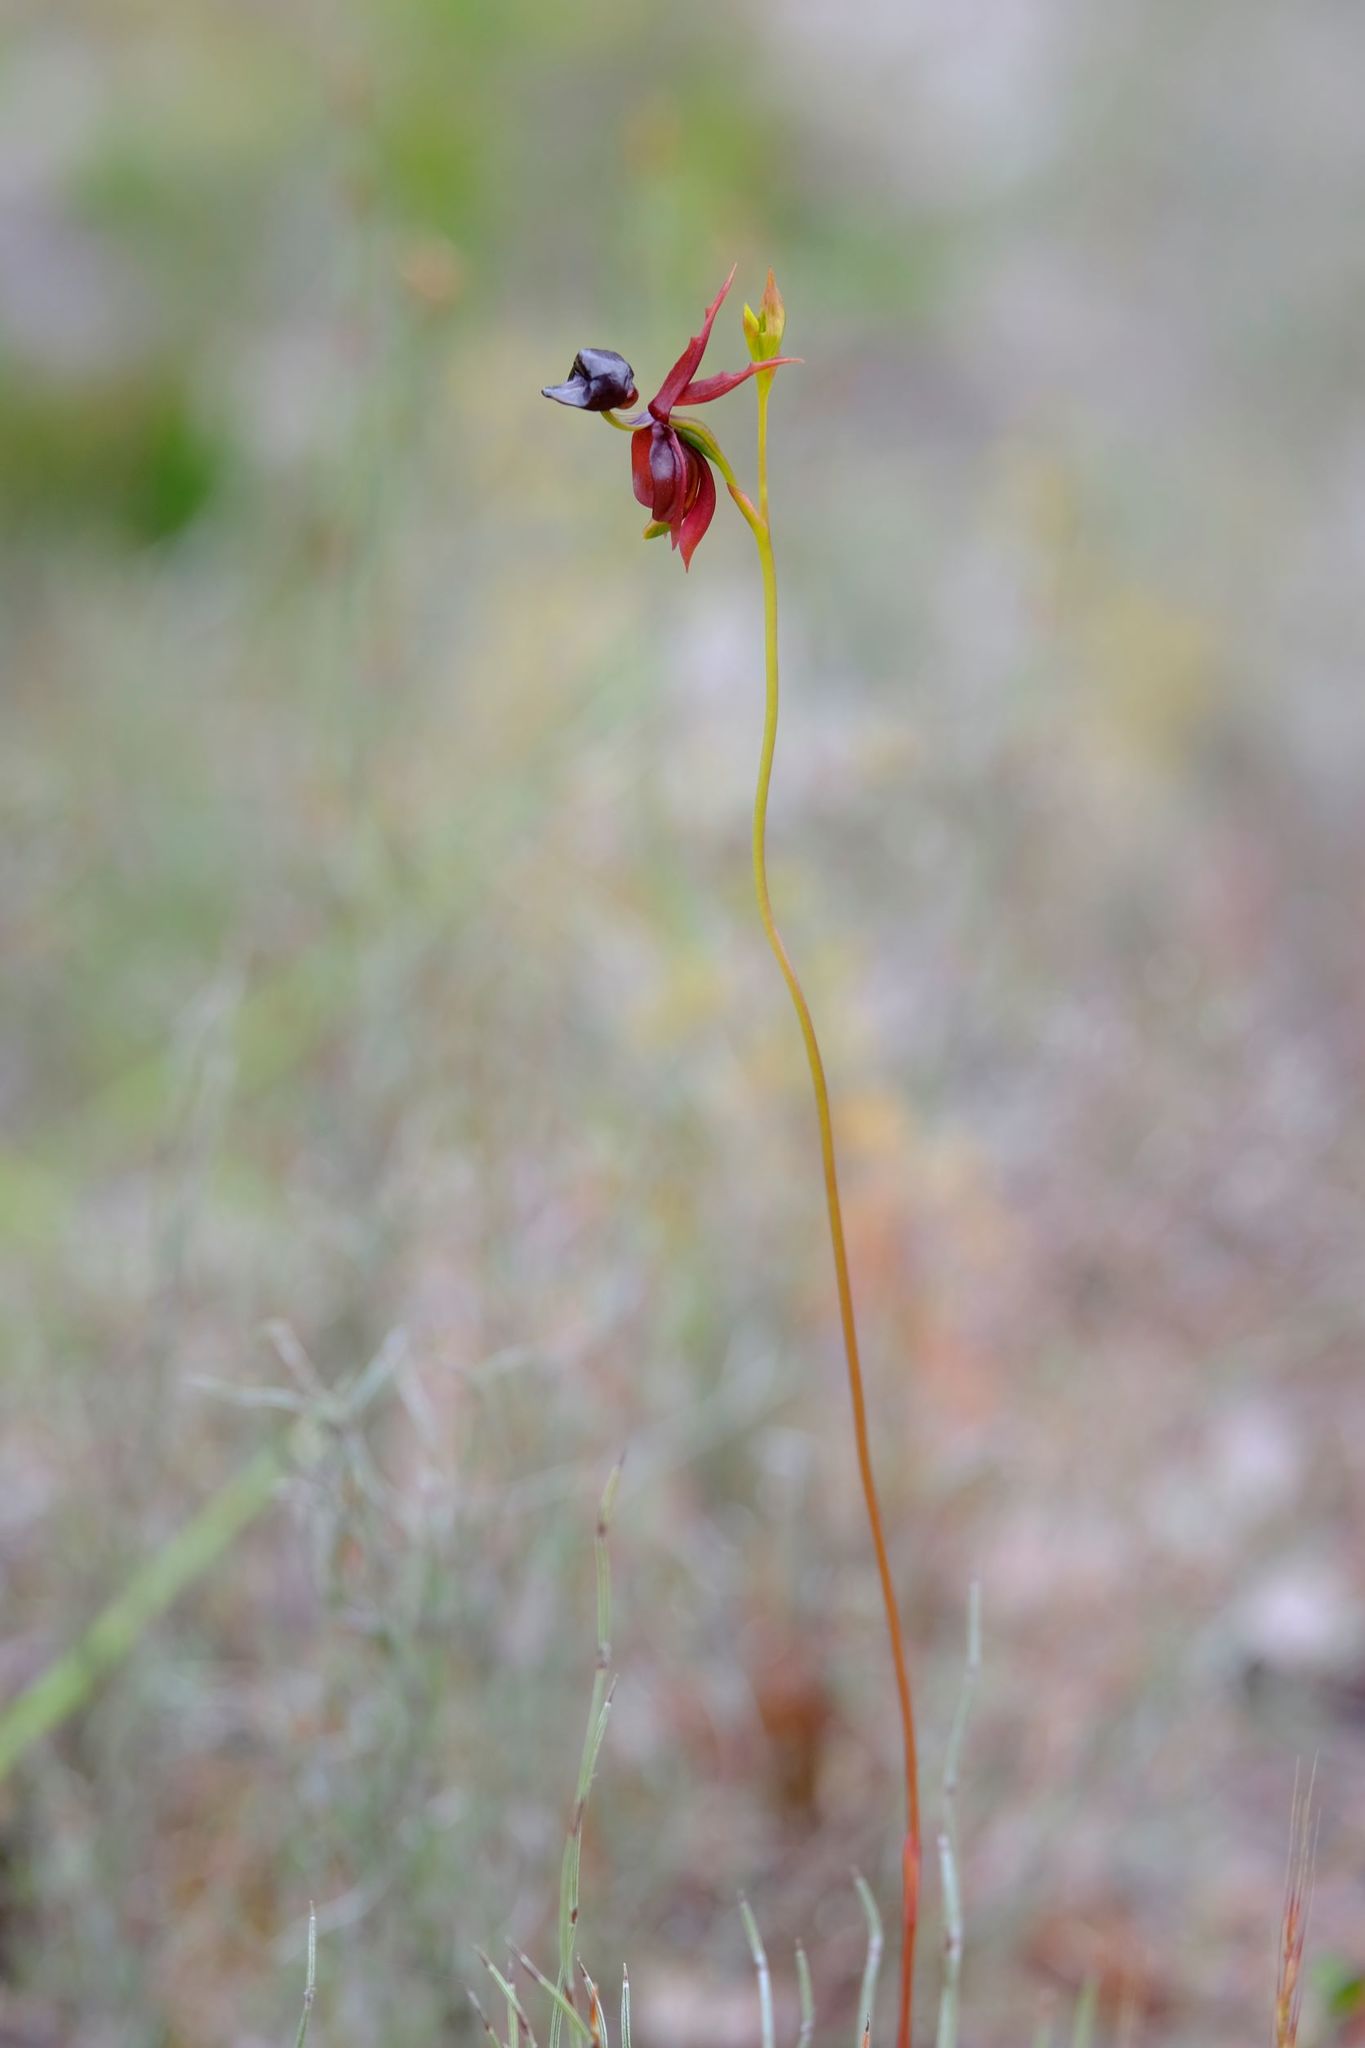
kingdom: Plantae
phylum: Tracheophyta
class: Liliopsida
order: Asparagales
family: Orchidaceae
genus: Caleana
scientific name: Caleana major
